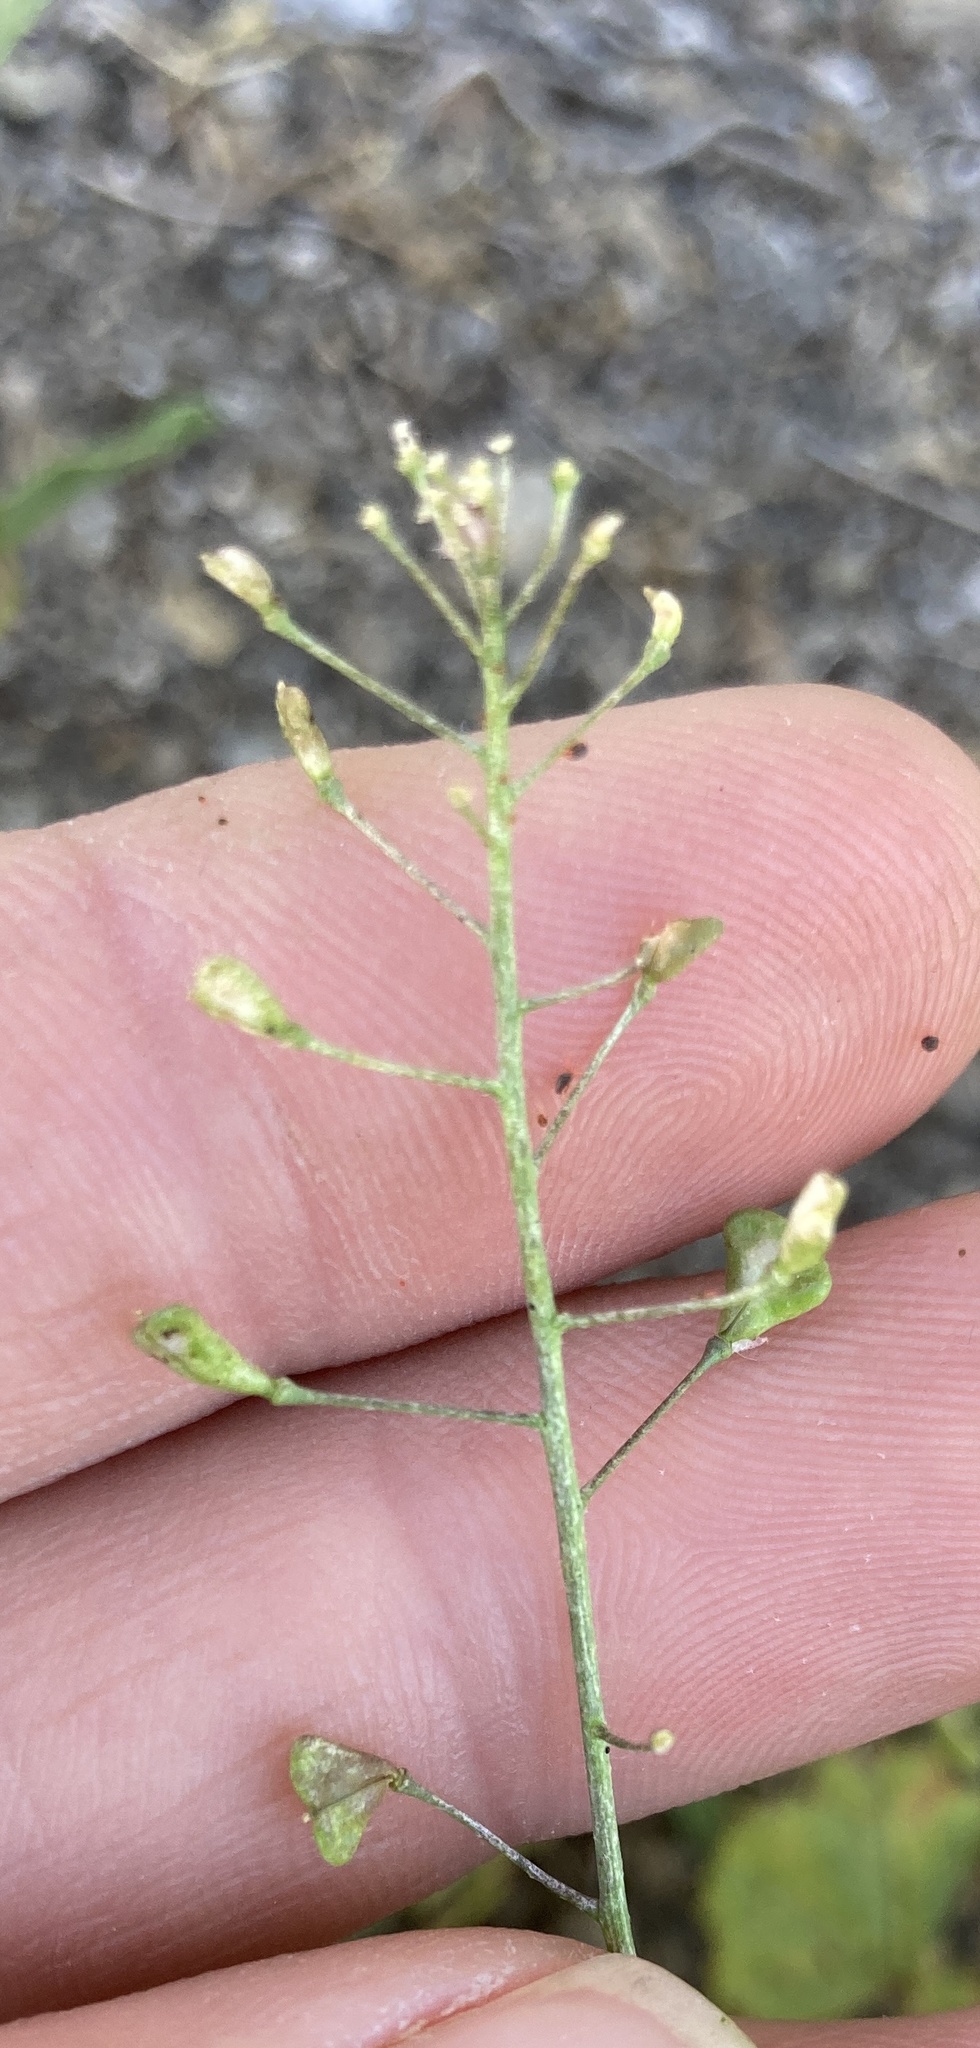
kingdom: Plantae
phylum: Tracheophyta
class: Magnoliopsida
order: Brassicales
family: Brassicaceae
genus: Capsella
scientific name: Capsella bursa-pastoris
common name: Shepherd's purse
